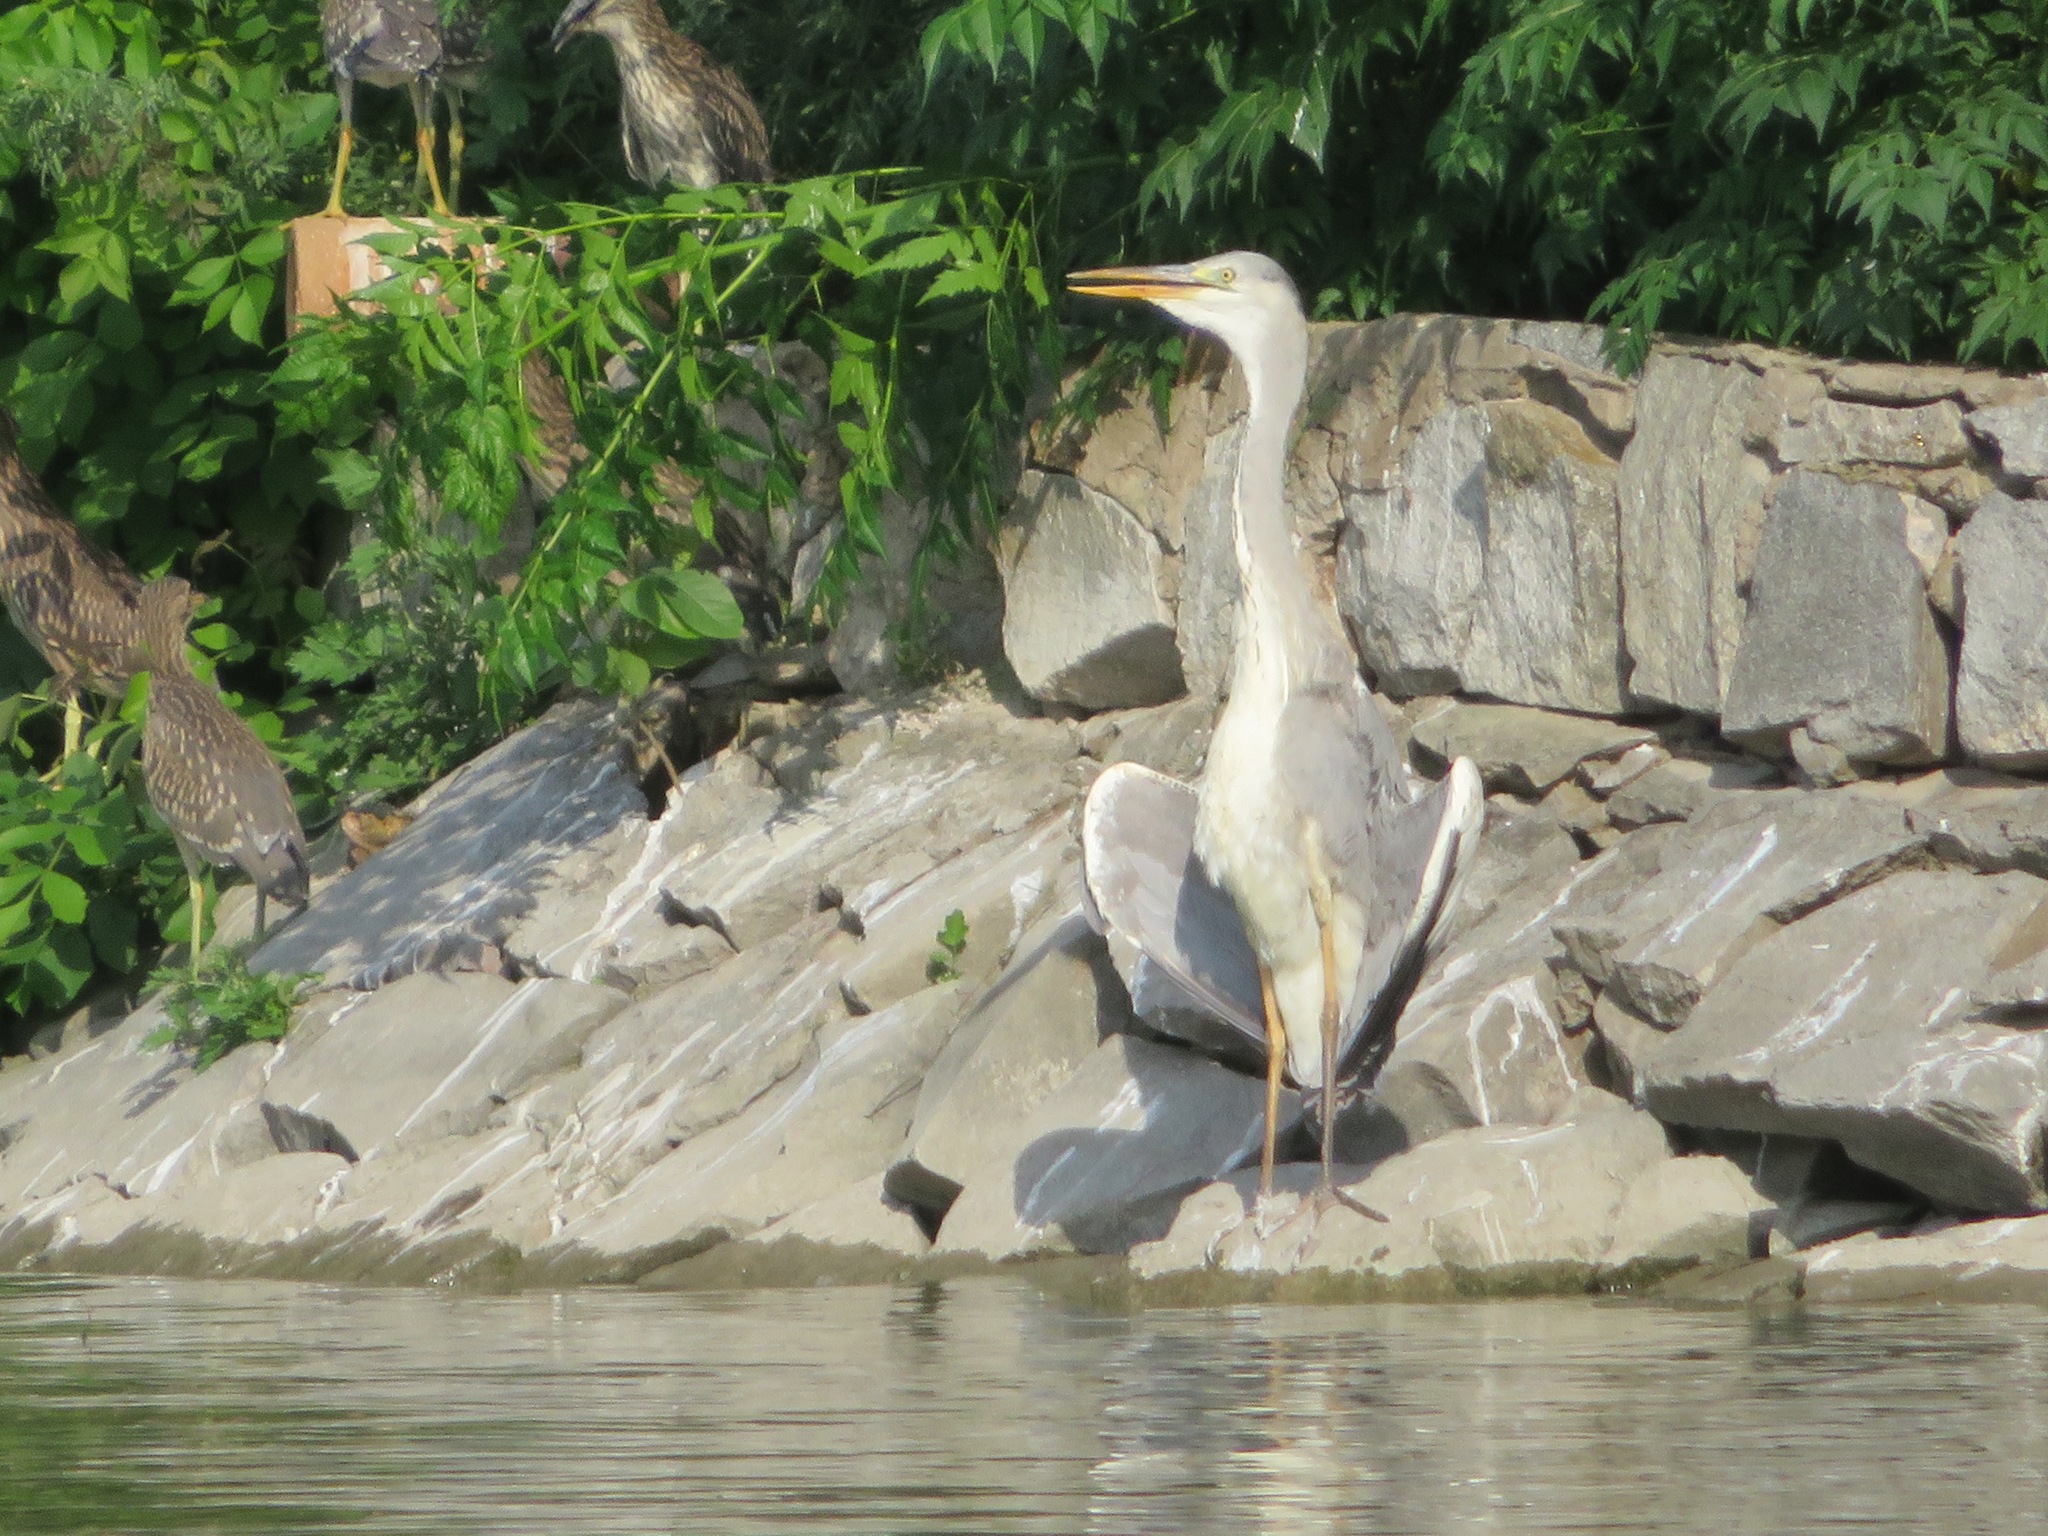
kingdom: Animalia
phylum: Chordata
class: Aves
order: Pelecaniformes
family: Ardeidae
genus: Ardea
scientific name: Ardea cinerea
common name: Grey heron
